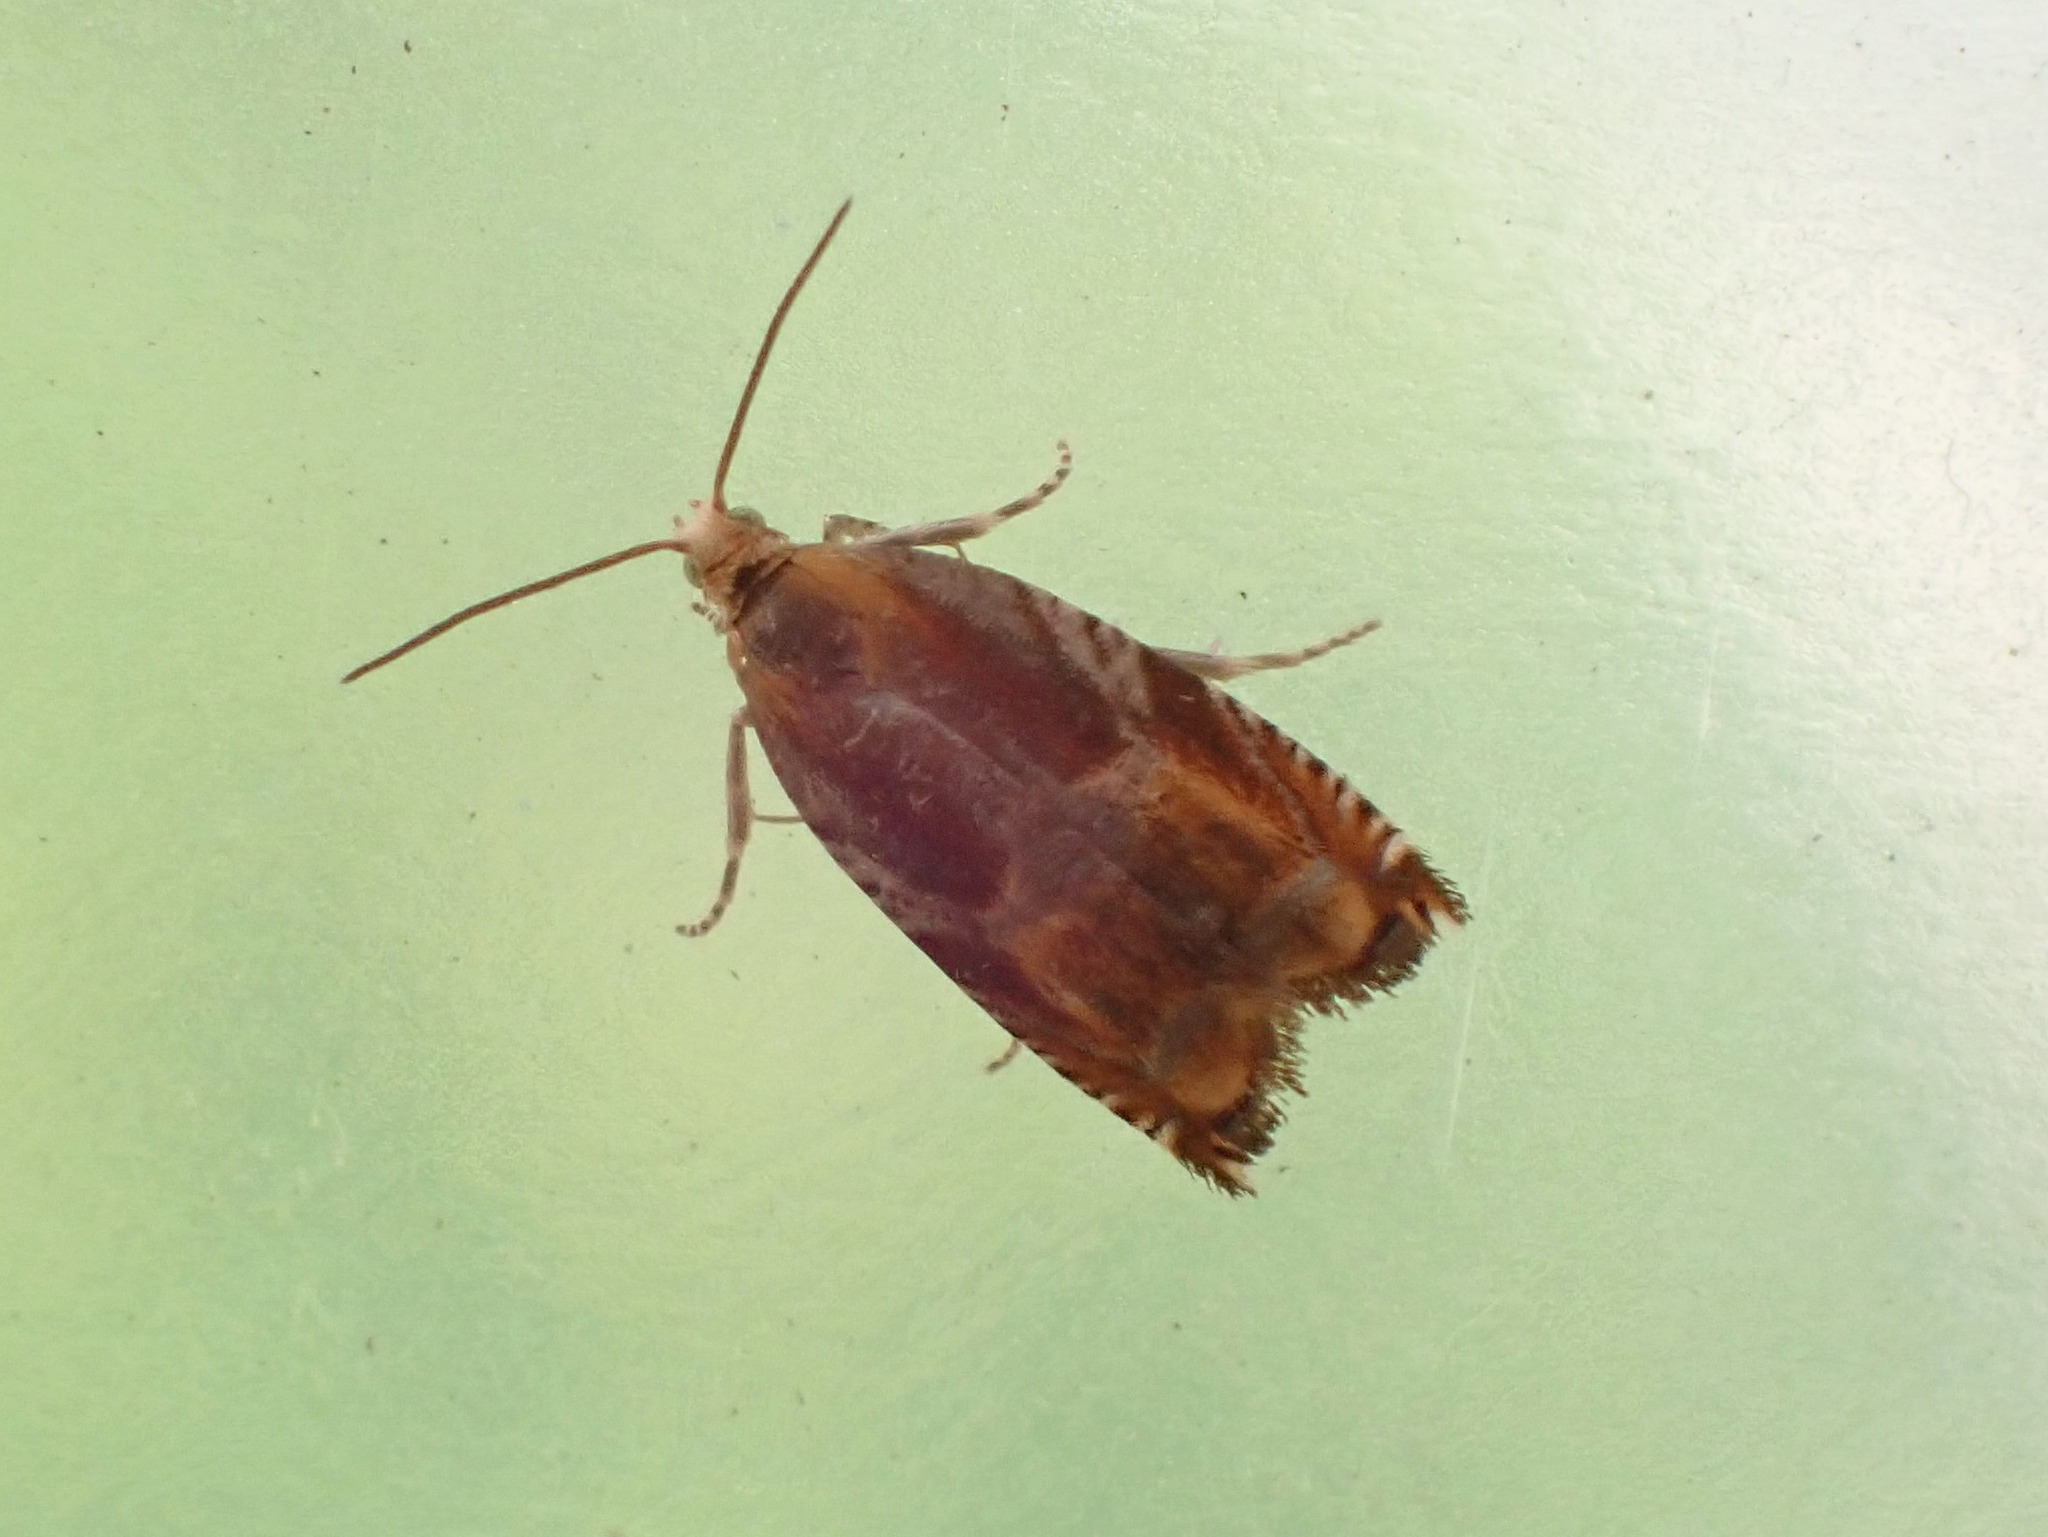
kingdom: Animalia
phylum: Arthropoda
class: Insecta
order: Lepidoptera
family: Tortricidae
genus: Ancylis
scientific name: Ancylis apicana
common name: Raspberry leaffolder moth
